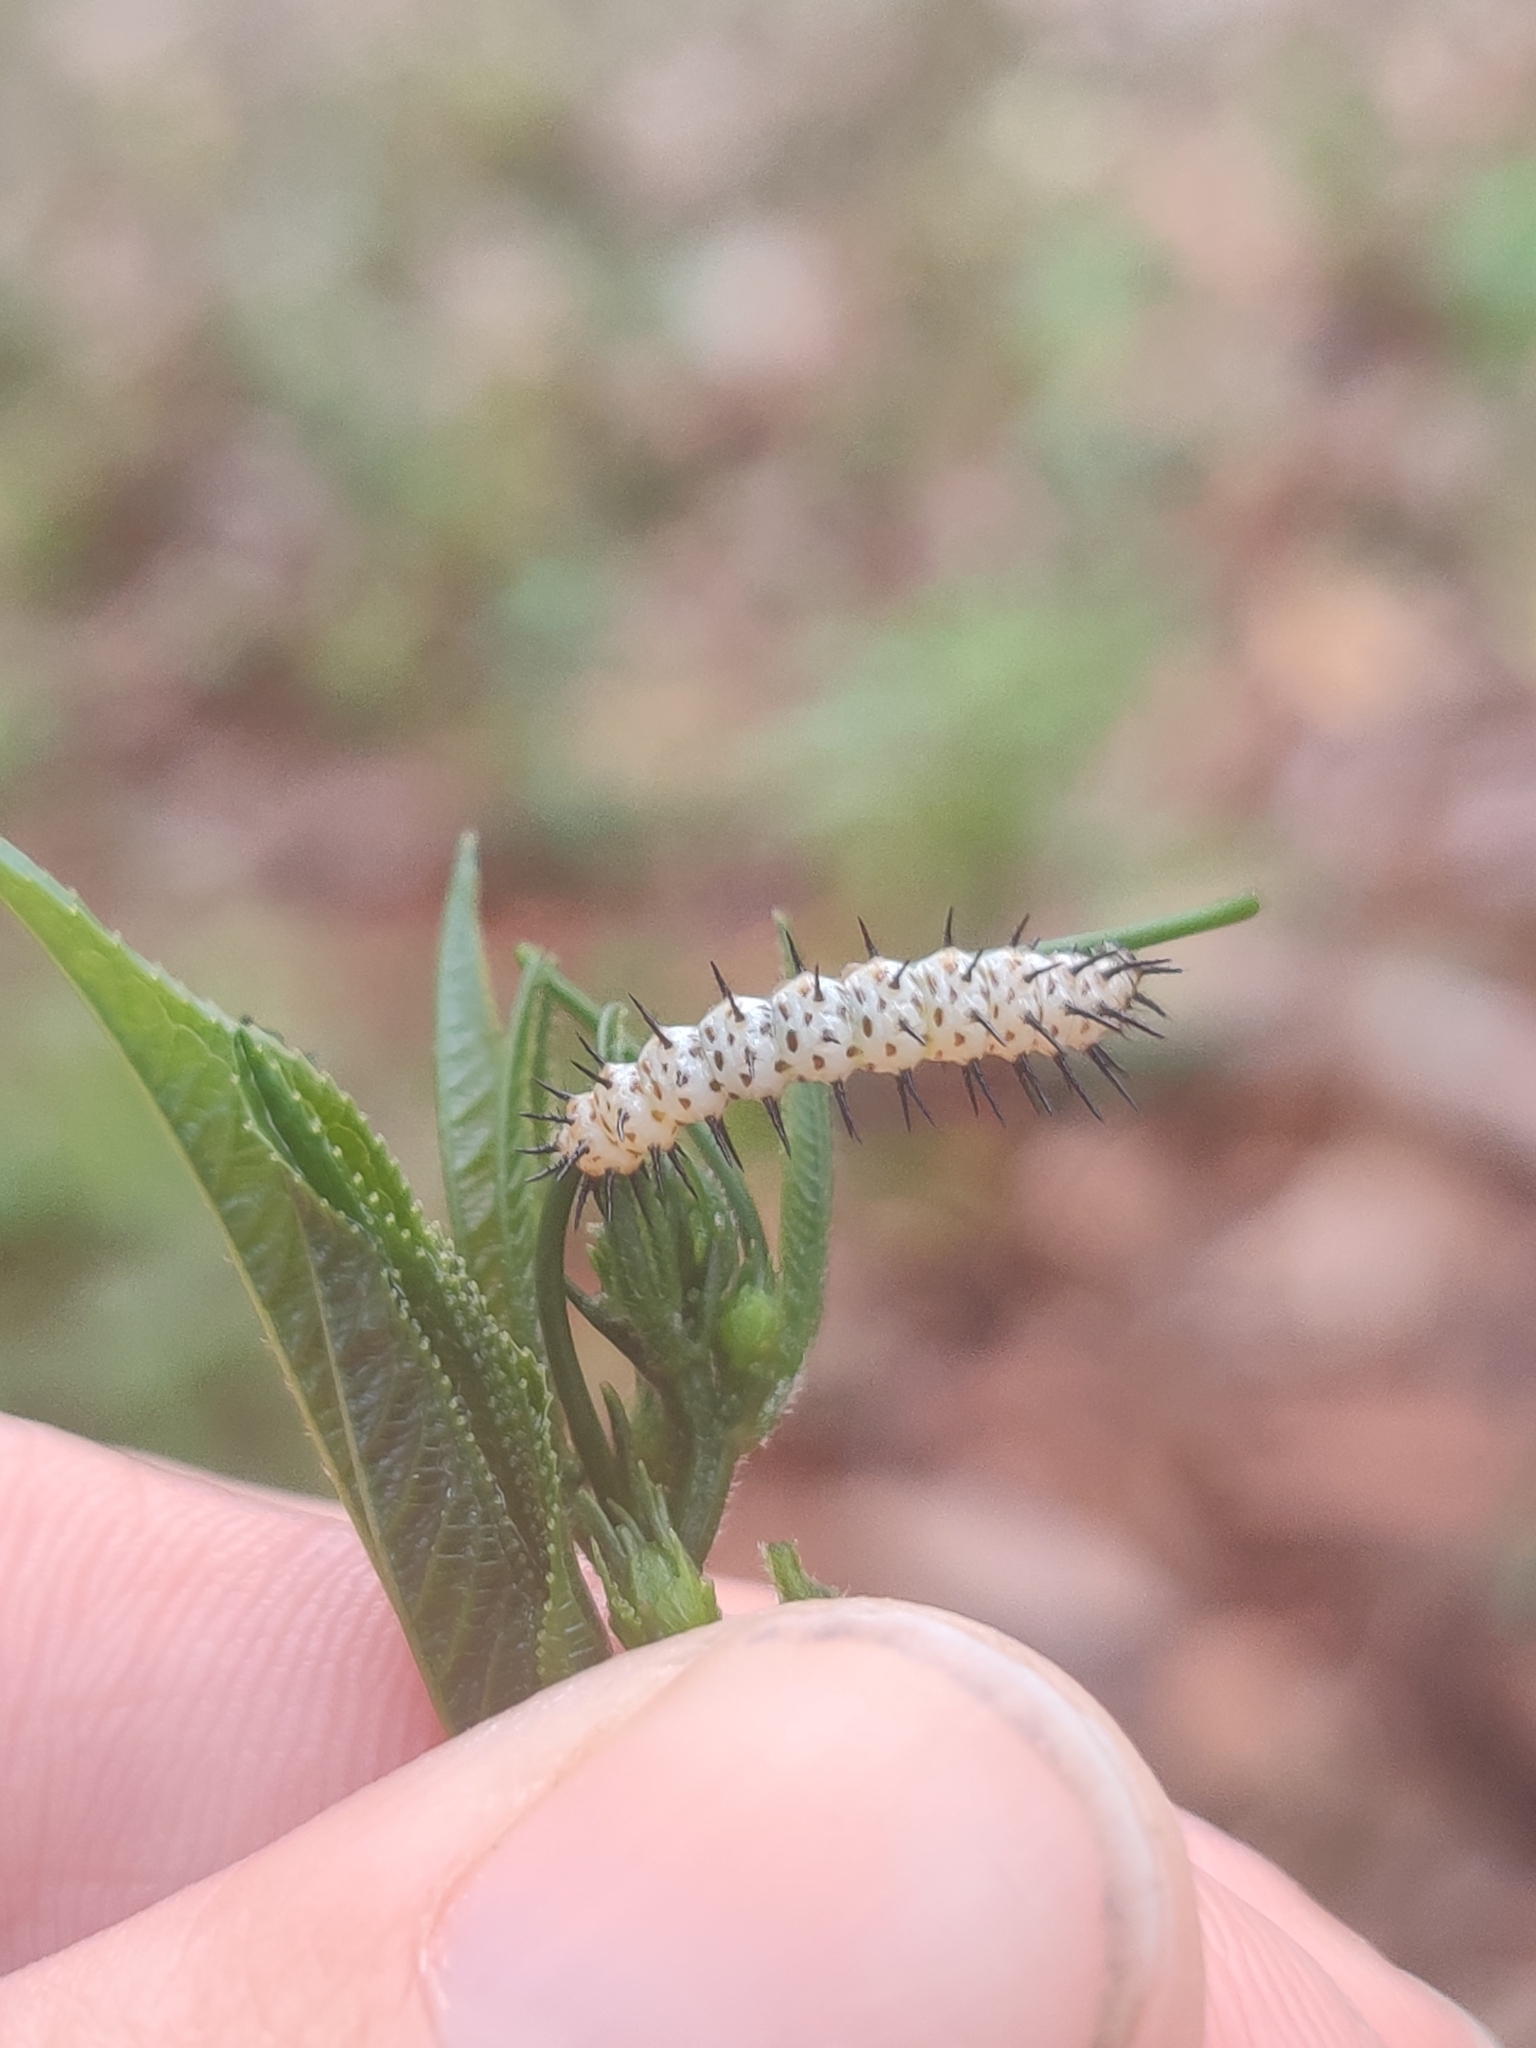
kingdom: Animalia
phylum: Arthropoda
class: Insecta
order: Lepidoptera
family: Nymphalidae
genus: Heliconius
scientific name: Heliconius charithonia
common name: Zebra long wing
